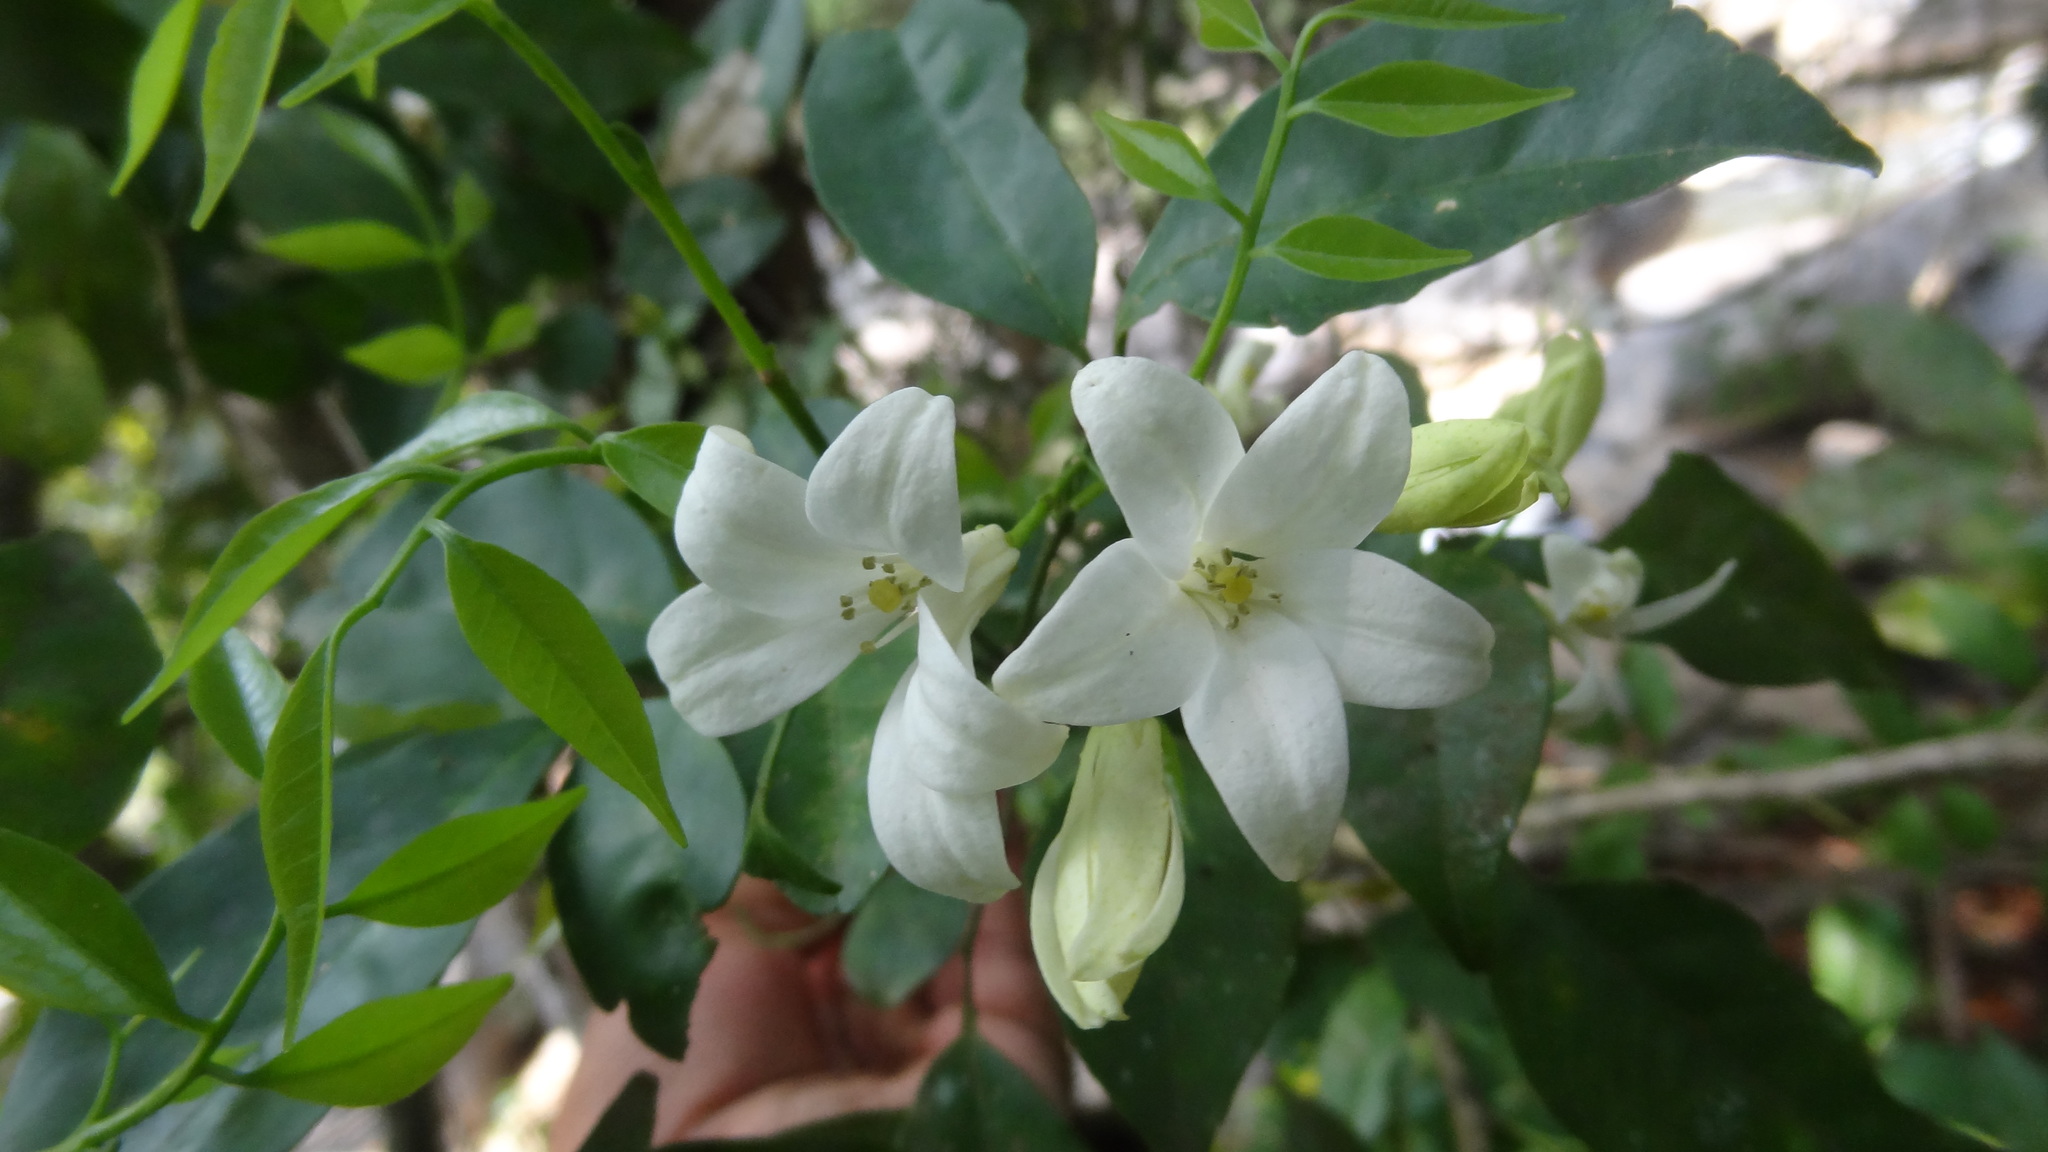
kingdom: Plantae
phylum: Tracheophyta
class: Magnoliopsida
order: Sapindales
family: Rutaceae
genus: Murraya
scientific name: Murraya paniculata
